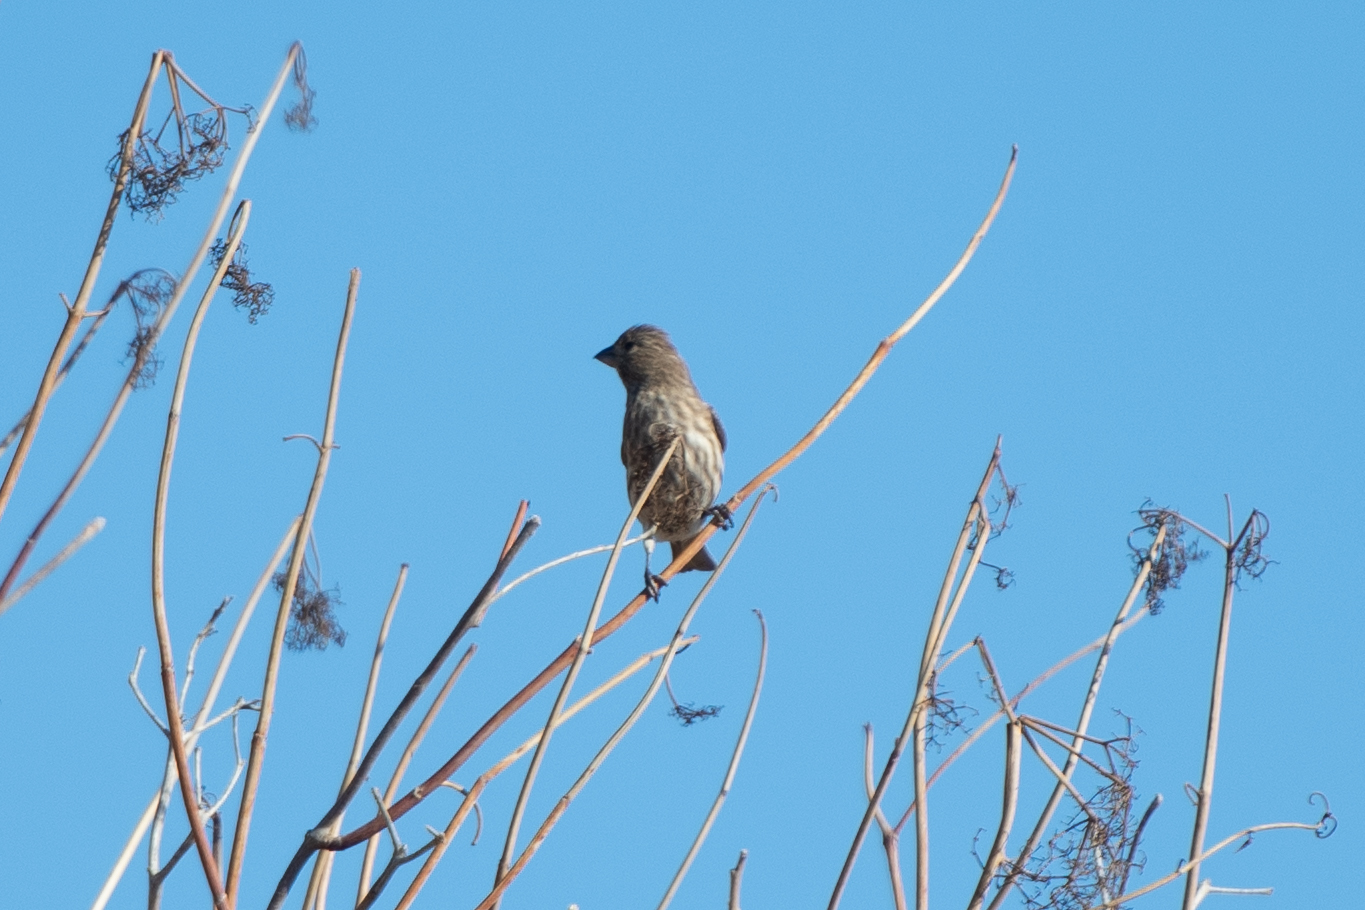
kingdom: Animalia
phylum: Chordata
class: Aves
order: Passeriformes
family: Fringillidae
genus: Haemorhous
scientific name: Haemorhous mexicanus
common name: House finch
